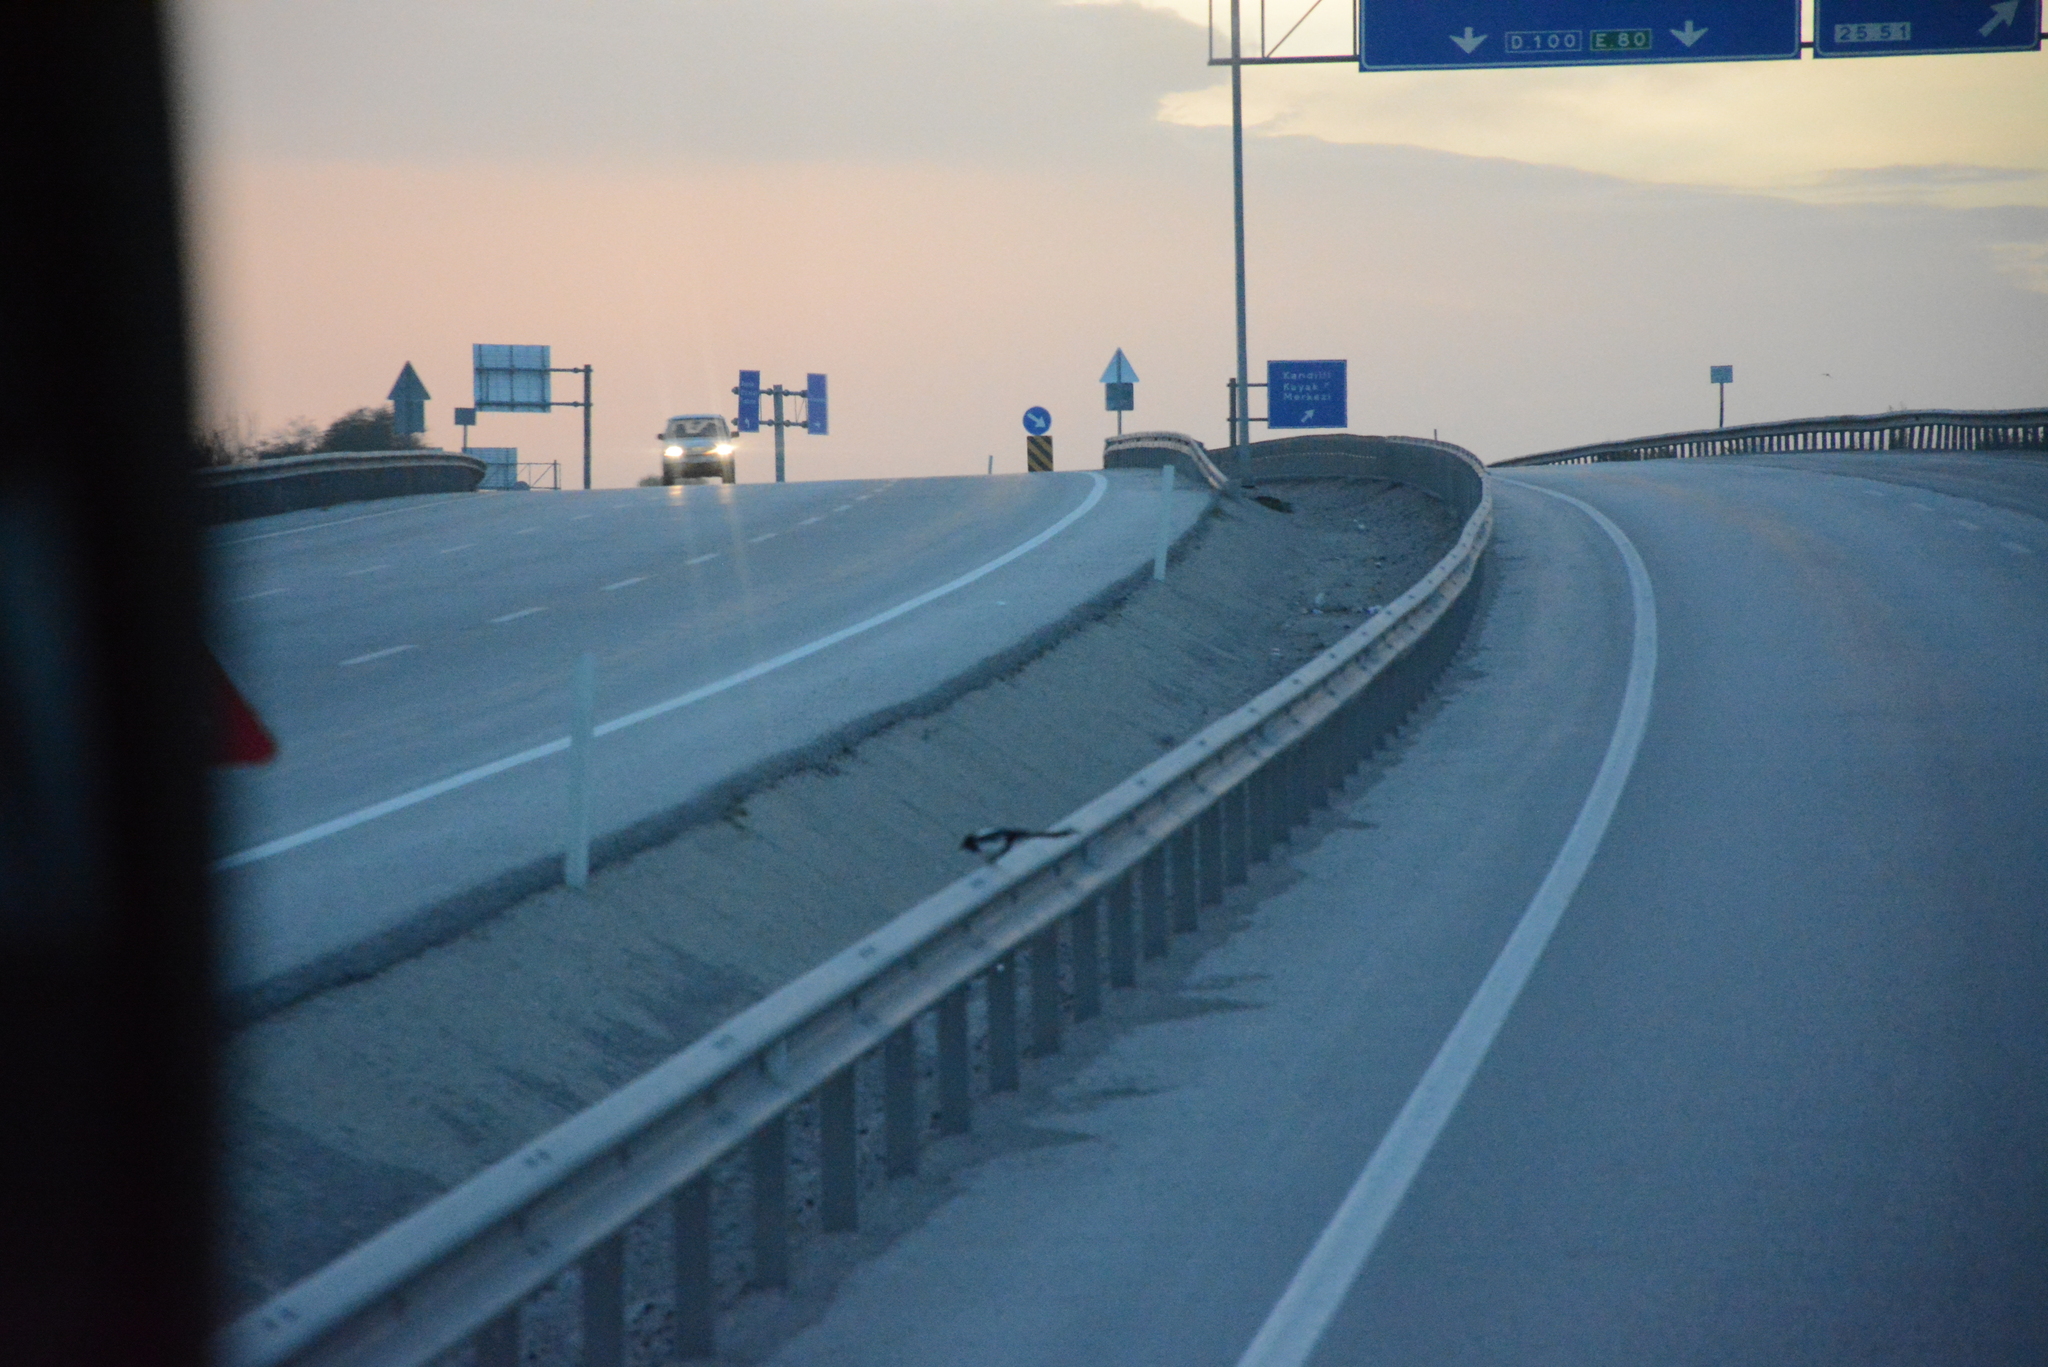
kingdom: Animalia
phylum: Chordata
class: Aves
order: Passeriformes
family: Corvidae
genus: Pica
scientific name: Pica pica
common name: Eurasian magpie
